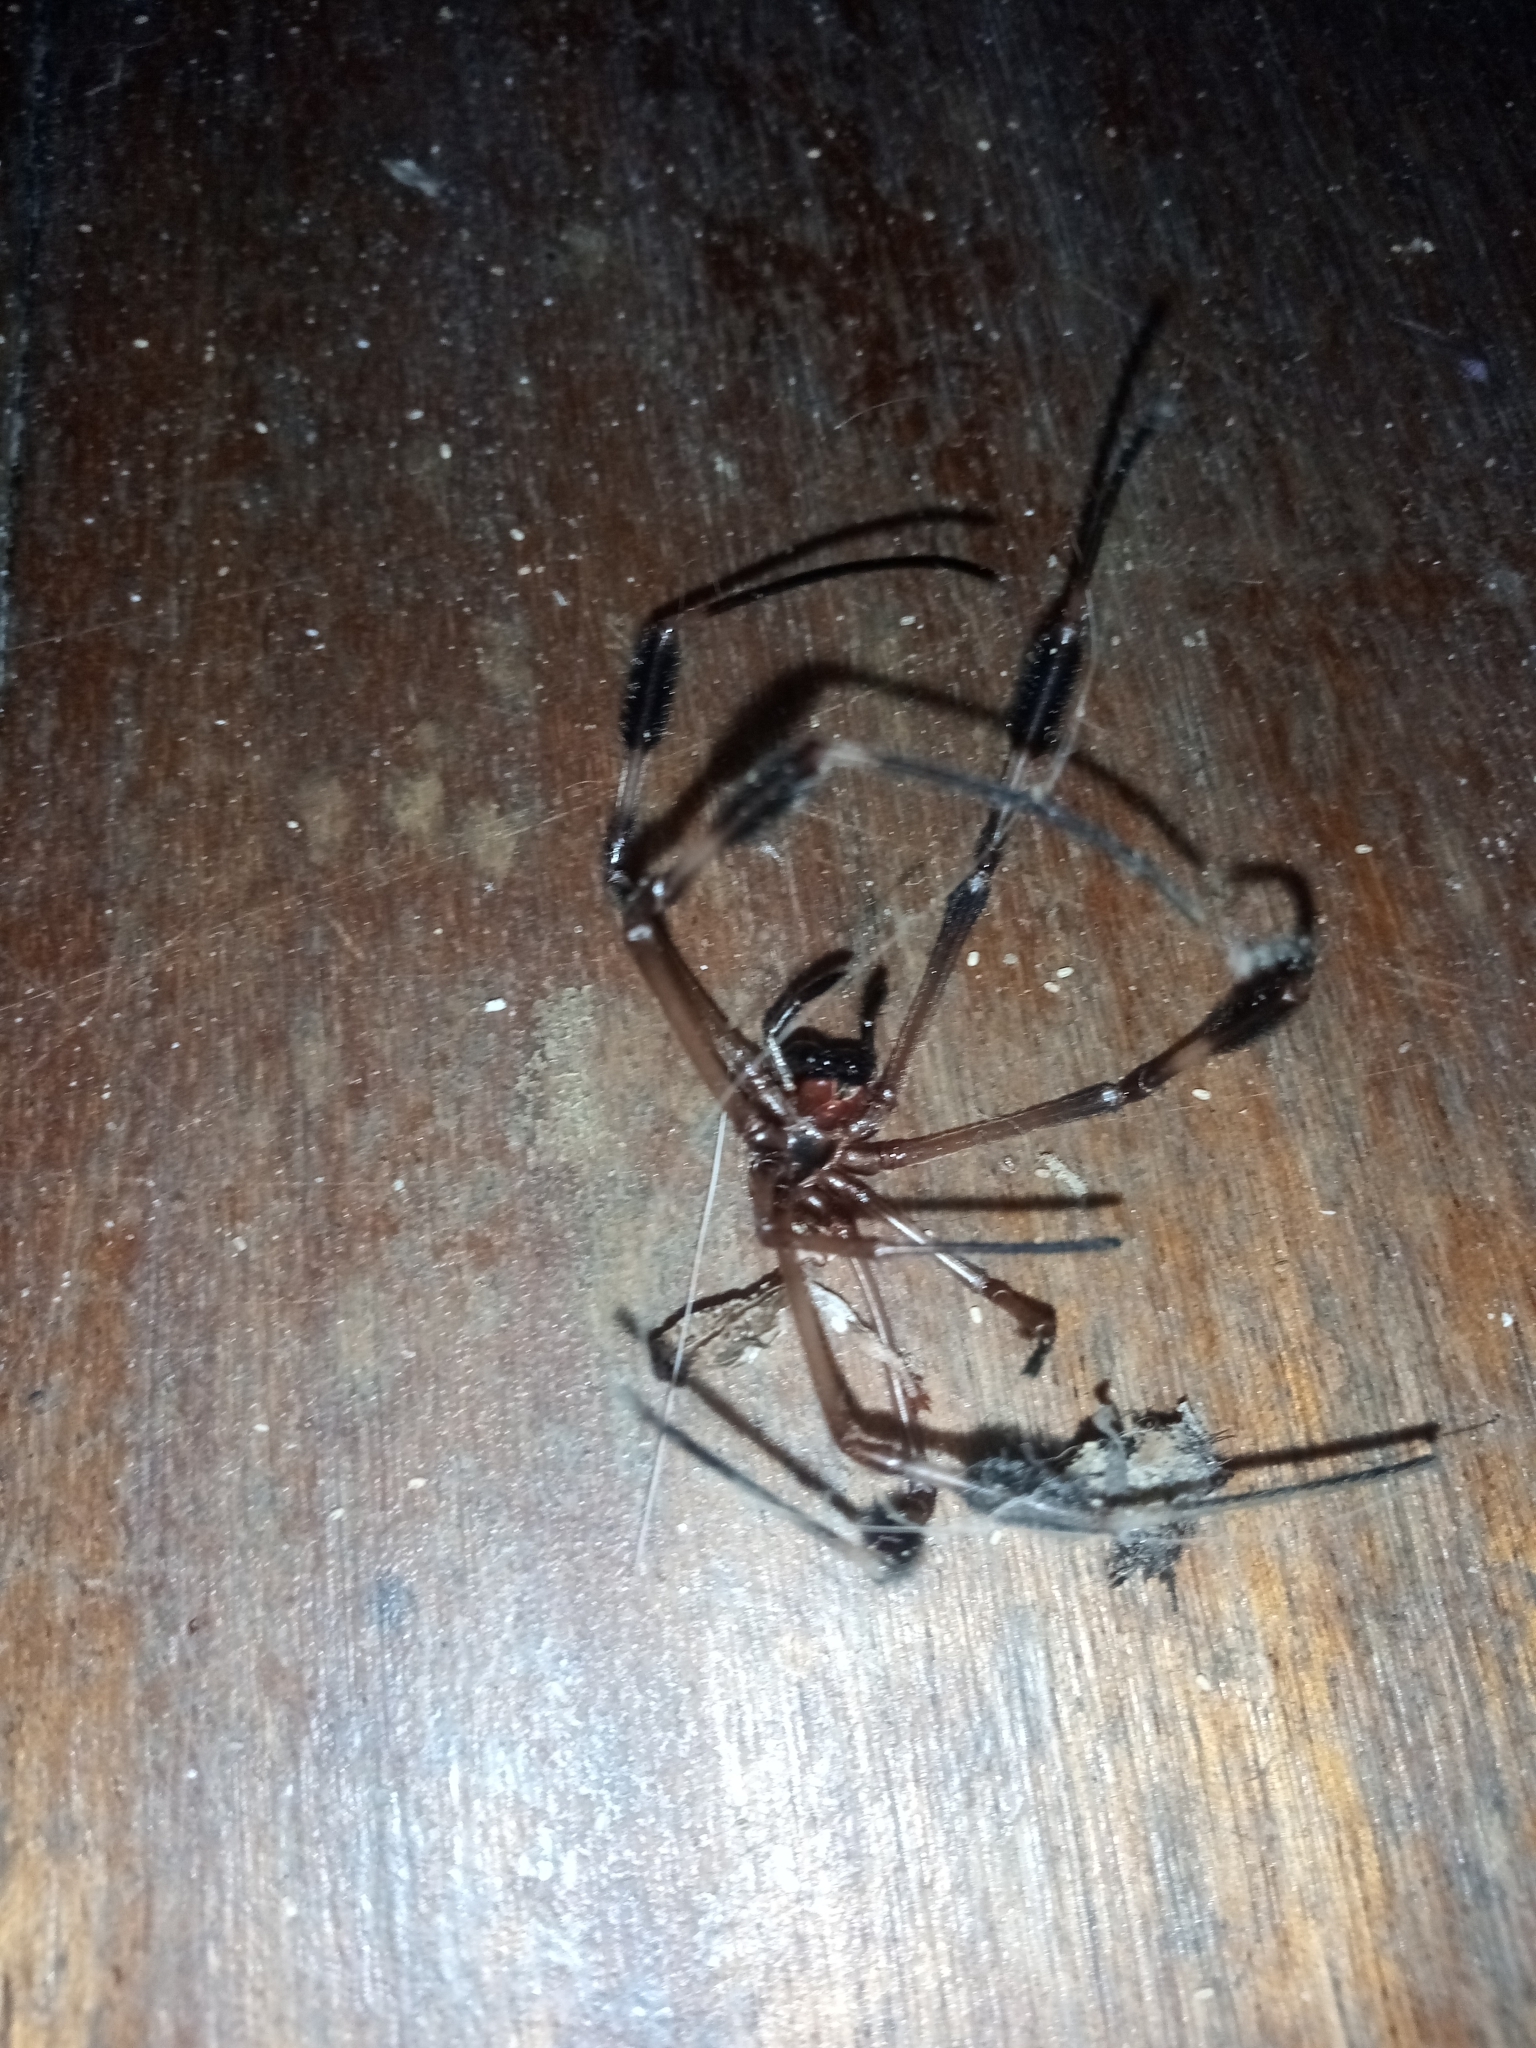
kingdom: Animalia
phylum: Arthropoda
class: Arachnida
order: Araneae
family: Araneidae
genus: Trichonephila
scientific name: Trichonephila clavipes
